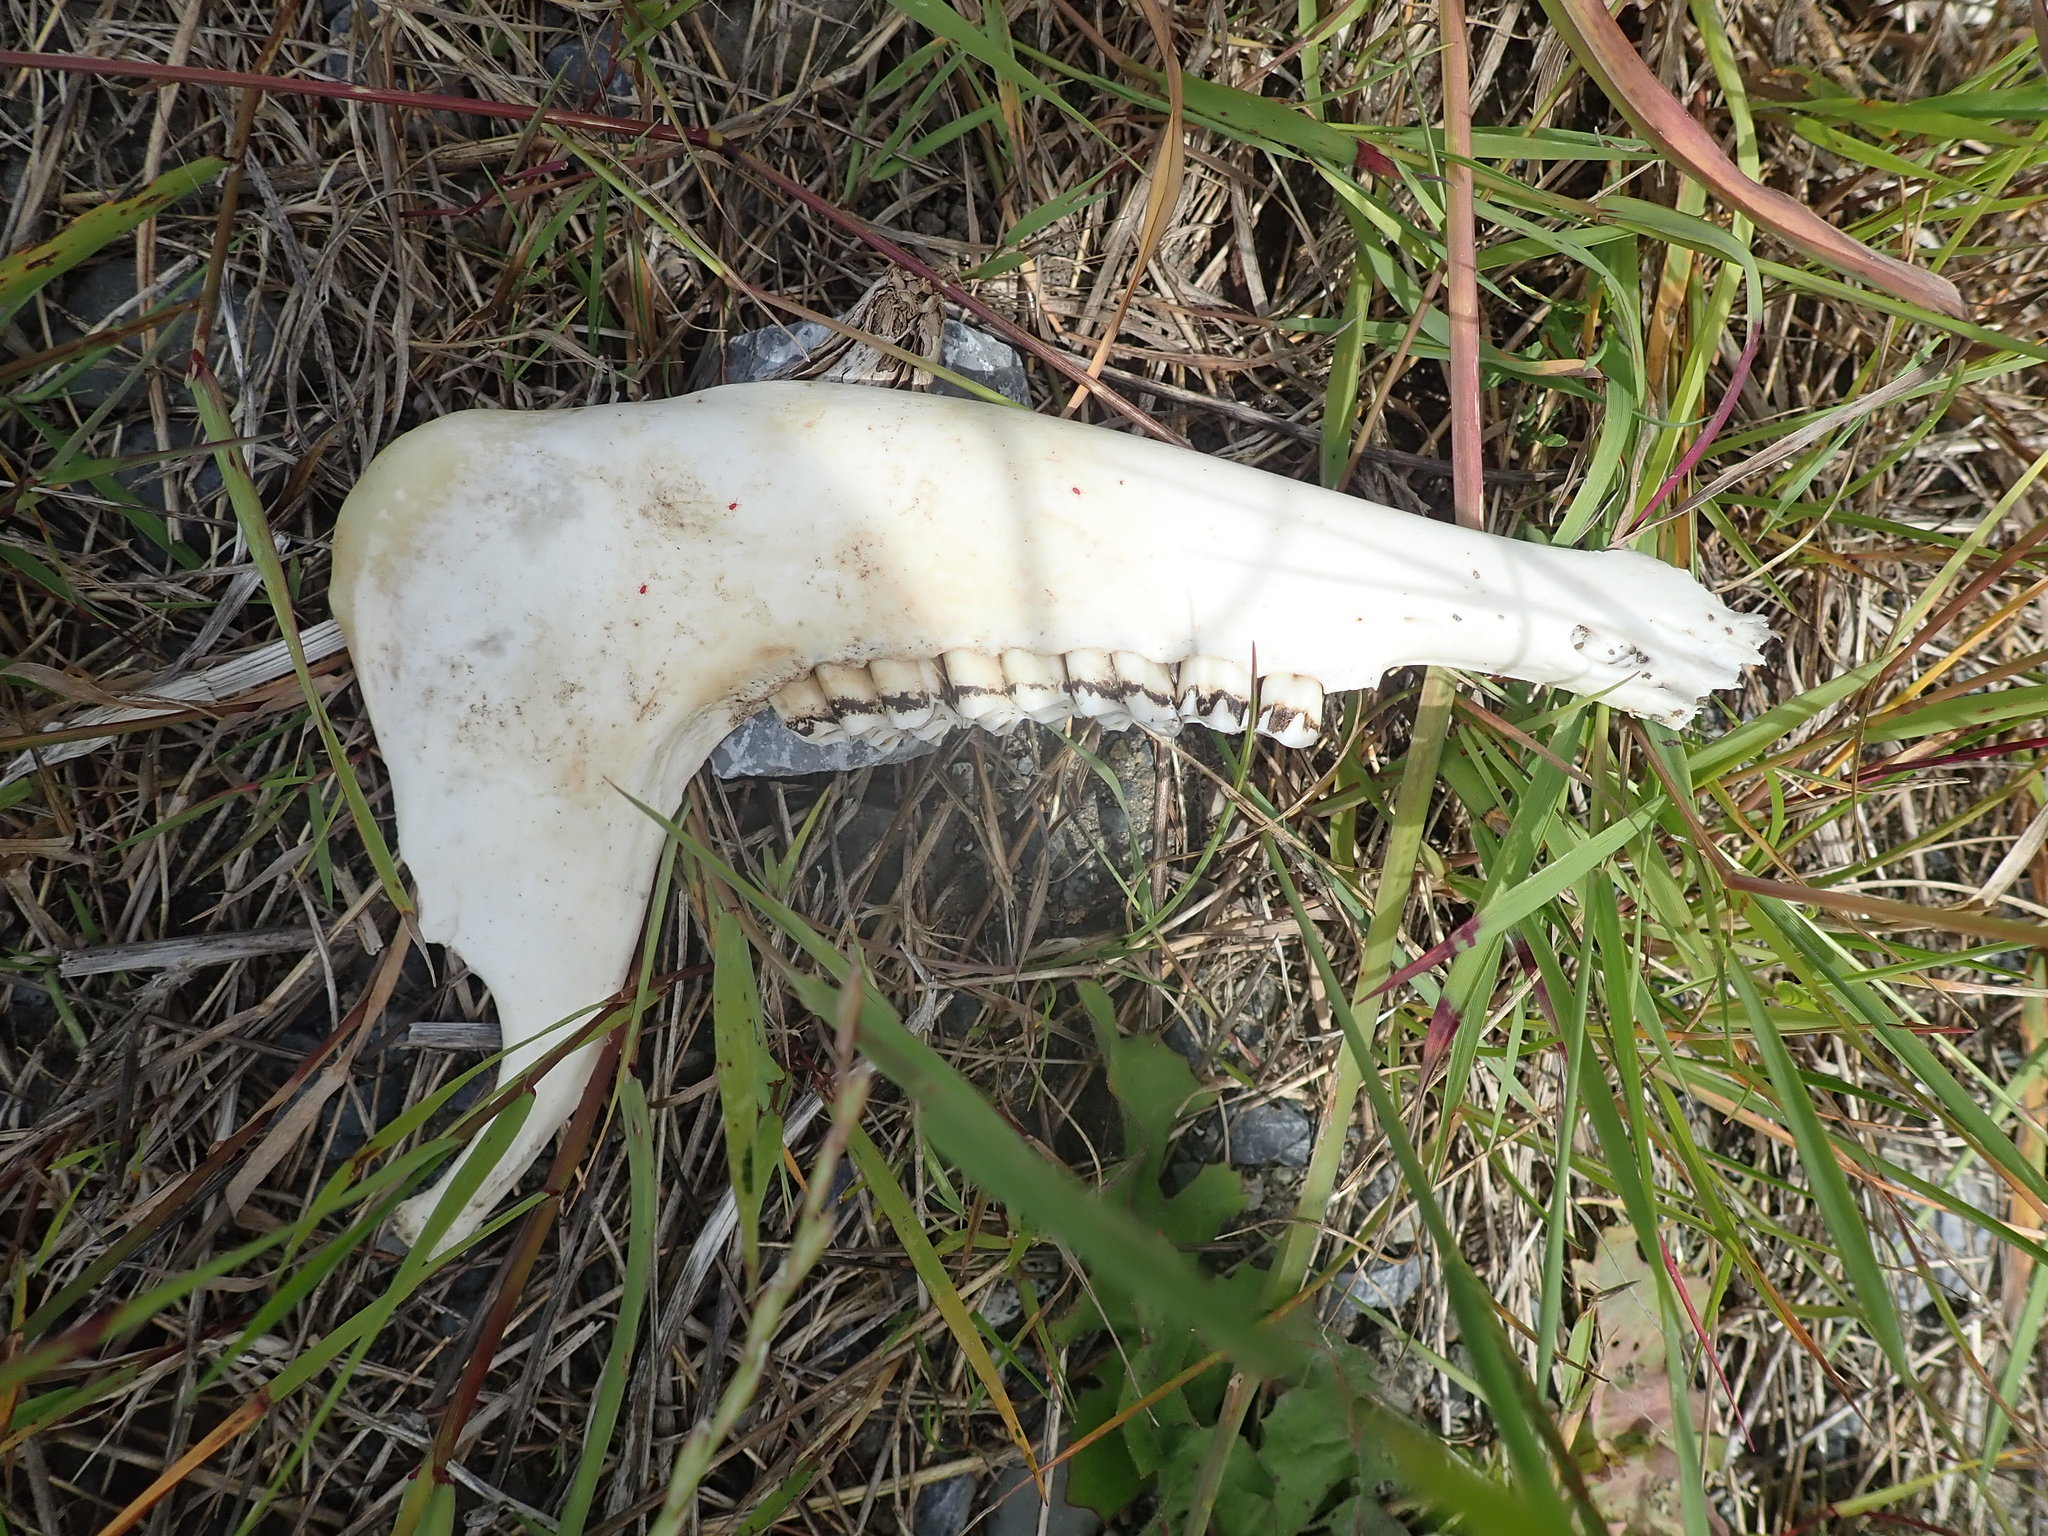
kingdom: Animalia
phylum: Chordata
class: Mammalia
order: Artiodactyla
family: Cervidae
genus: Odocoileus
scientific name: Odocoileus hemionus
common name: Mule deer
